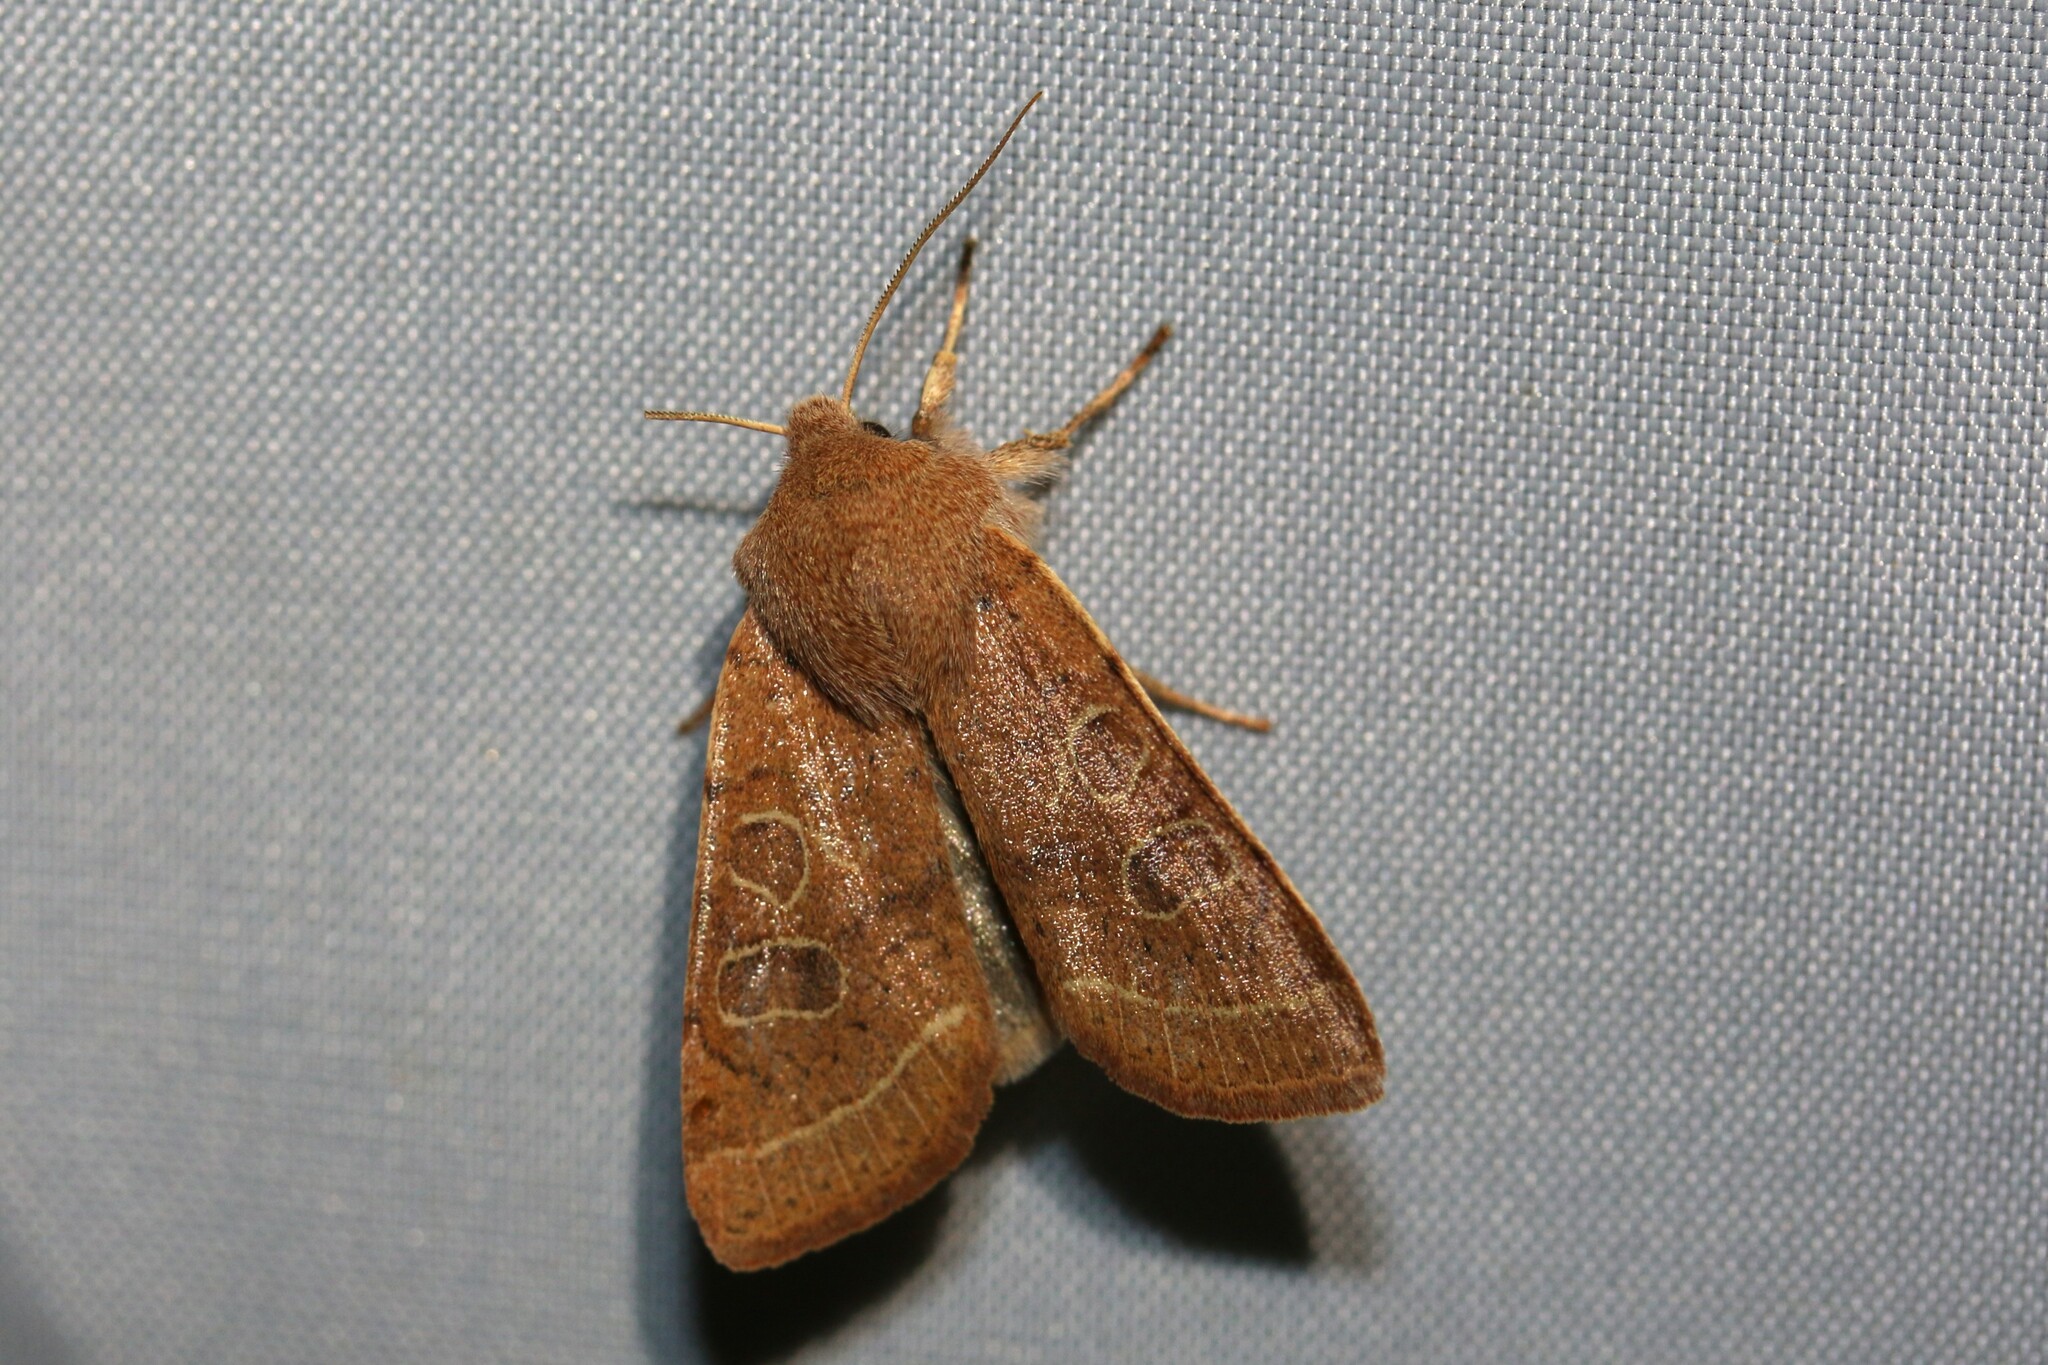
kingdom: Animalia
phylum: Arthropoda
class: Insecta
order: Lepidoptera
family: Noctuidae
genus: Orthosia
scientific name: Orthosia cerasi
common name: Common quaker
